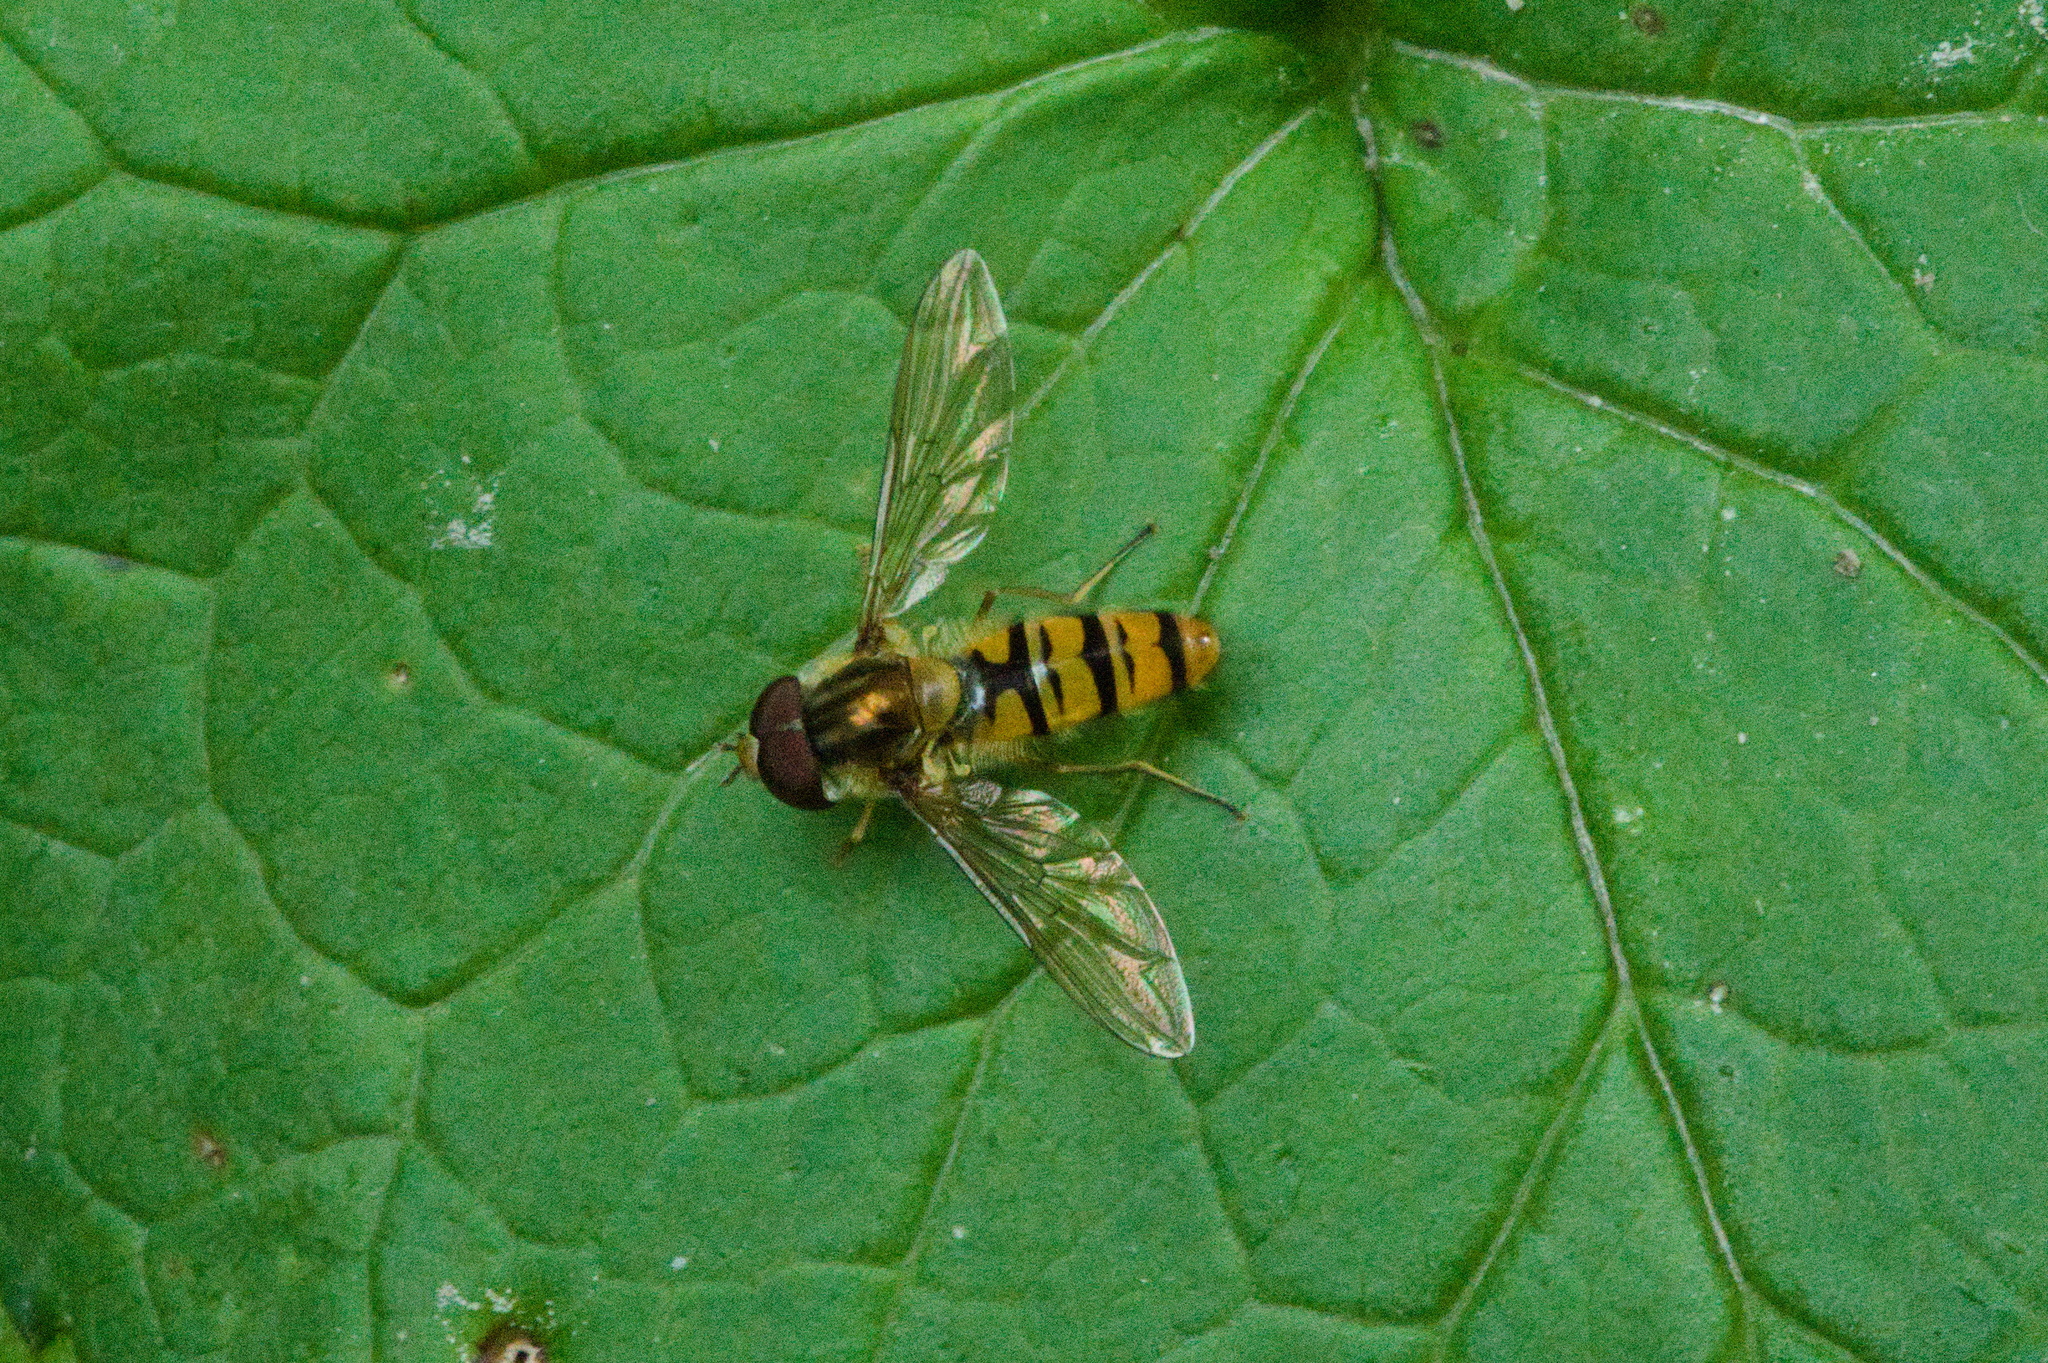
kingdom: Animalia
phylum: Arthropoda
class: Insecta
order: Diptera
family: Syrphidae
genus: Episyrphus
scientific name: Episyrphus balteatus
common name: Marmalade hoverfly
